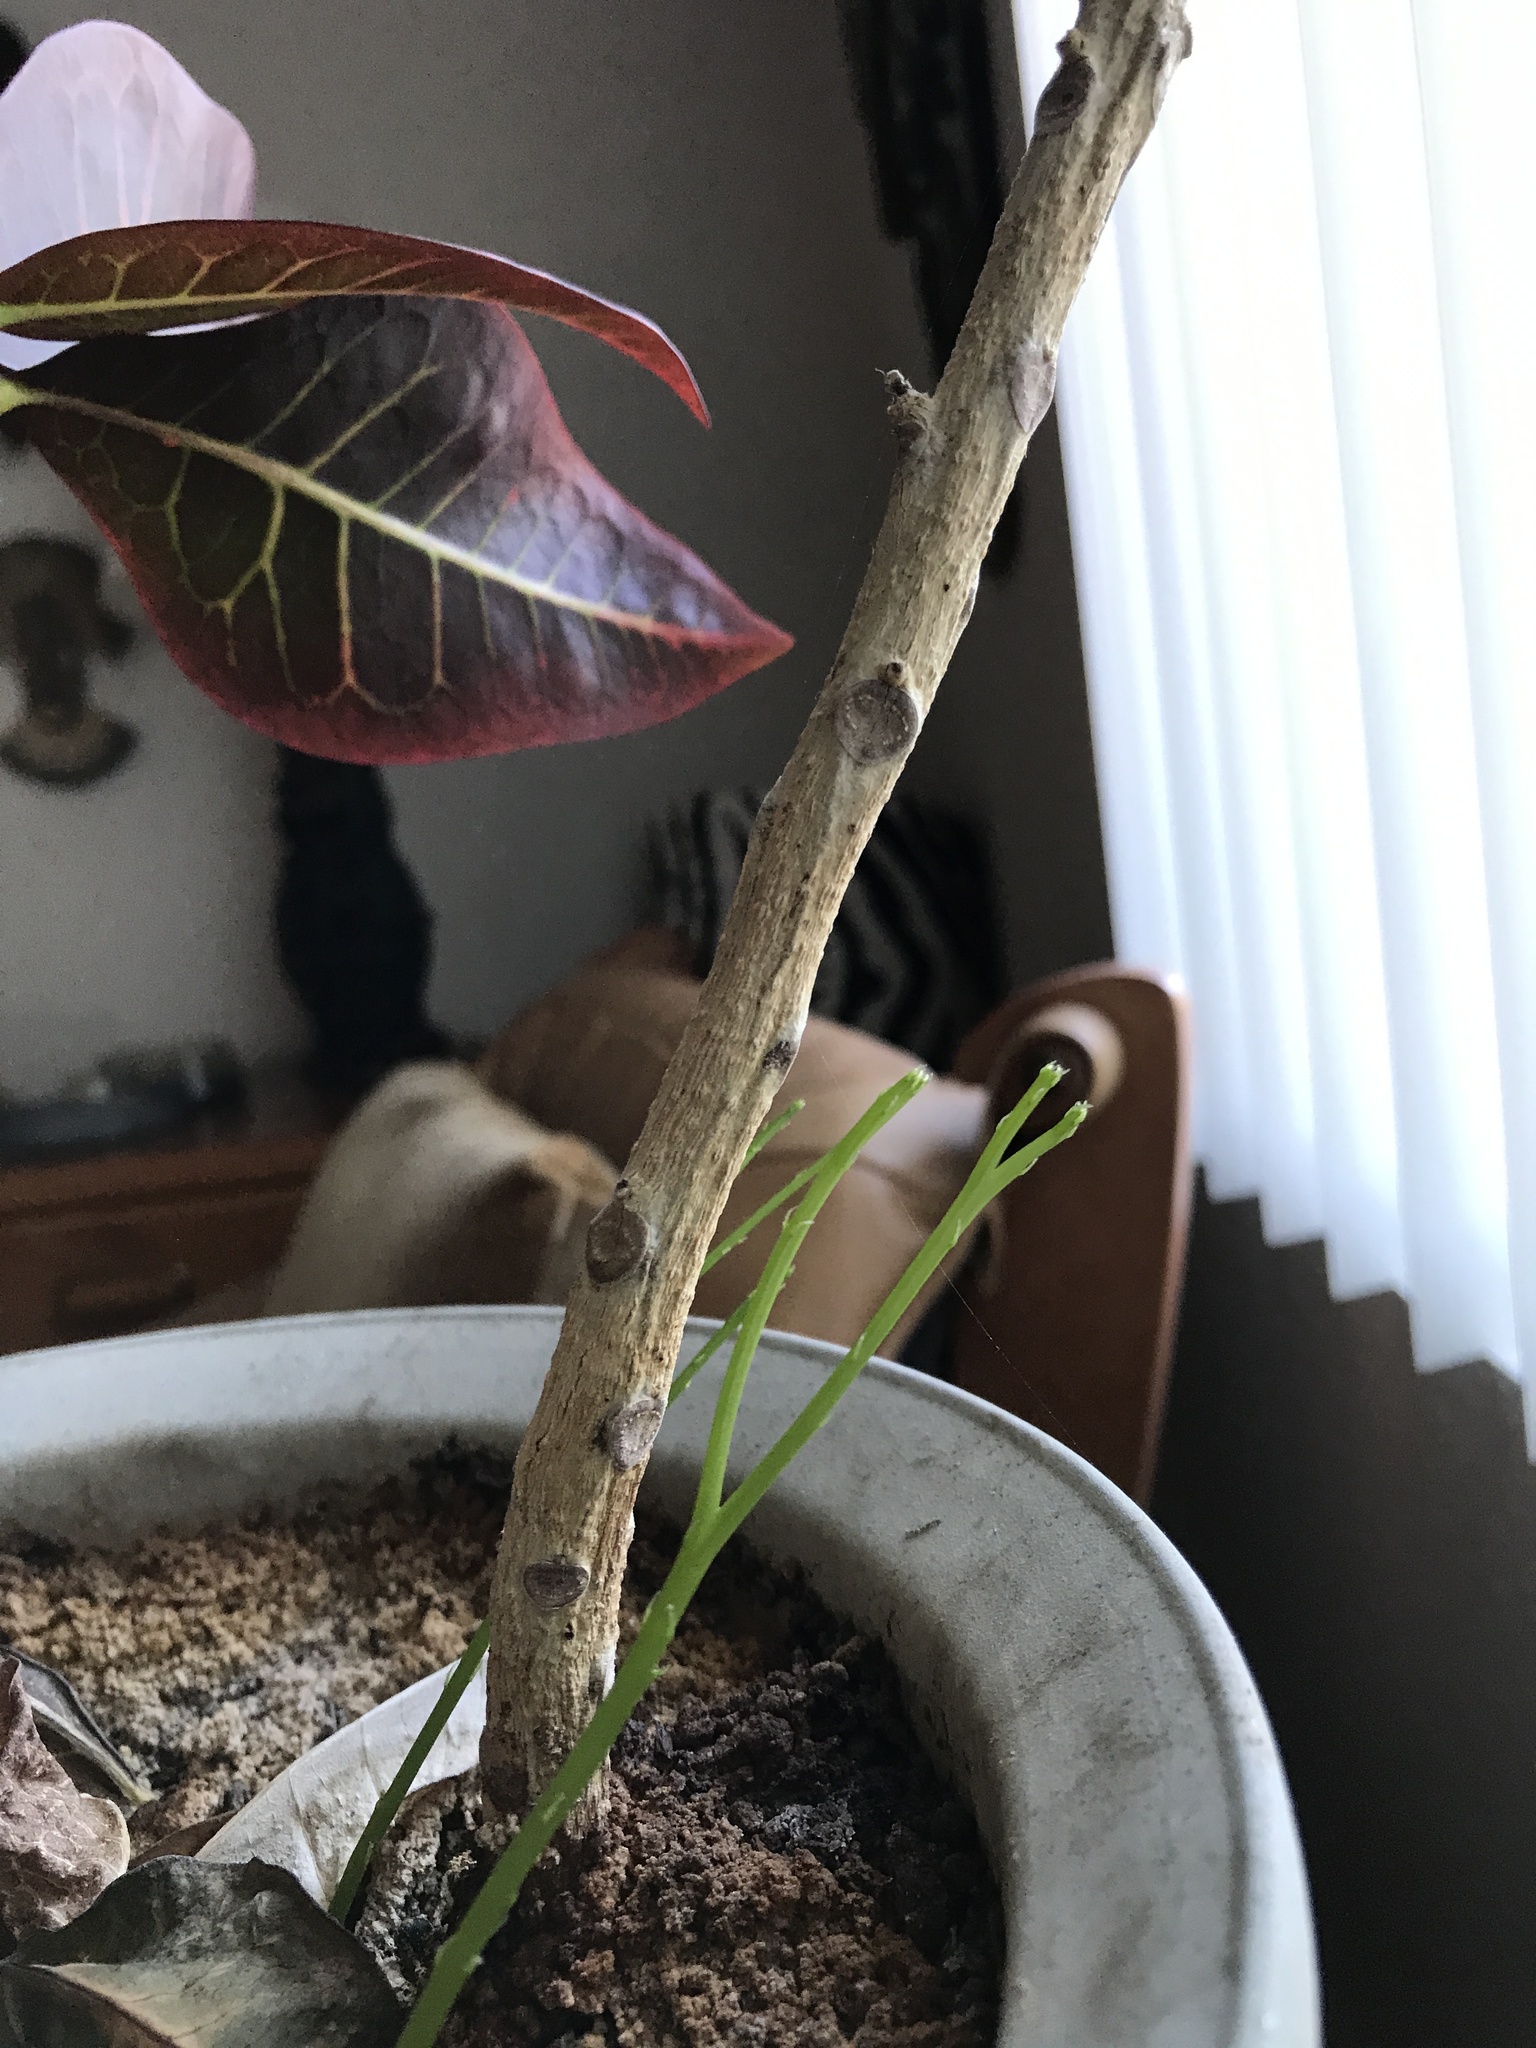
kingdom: Plantae
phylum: Tracheophyta
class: Polypodiopsida
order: Psilotales
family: Psilotaceae
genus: Psilotum
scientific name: Psilotum nudum
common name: Skeleton fork fern
